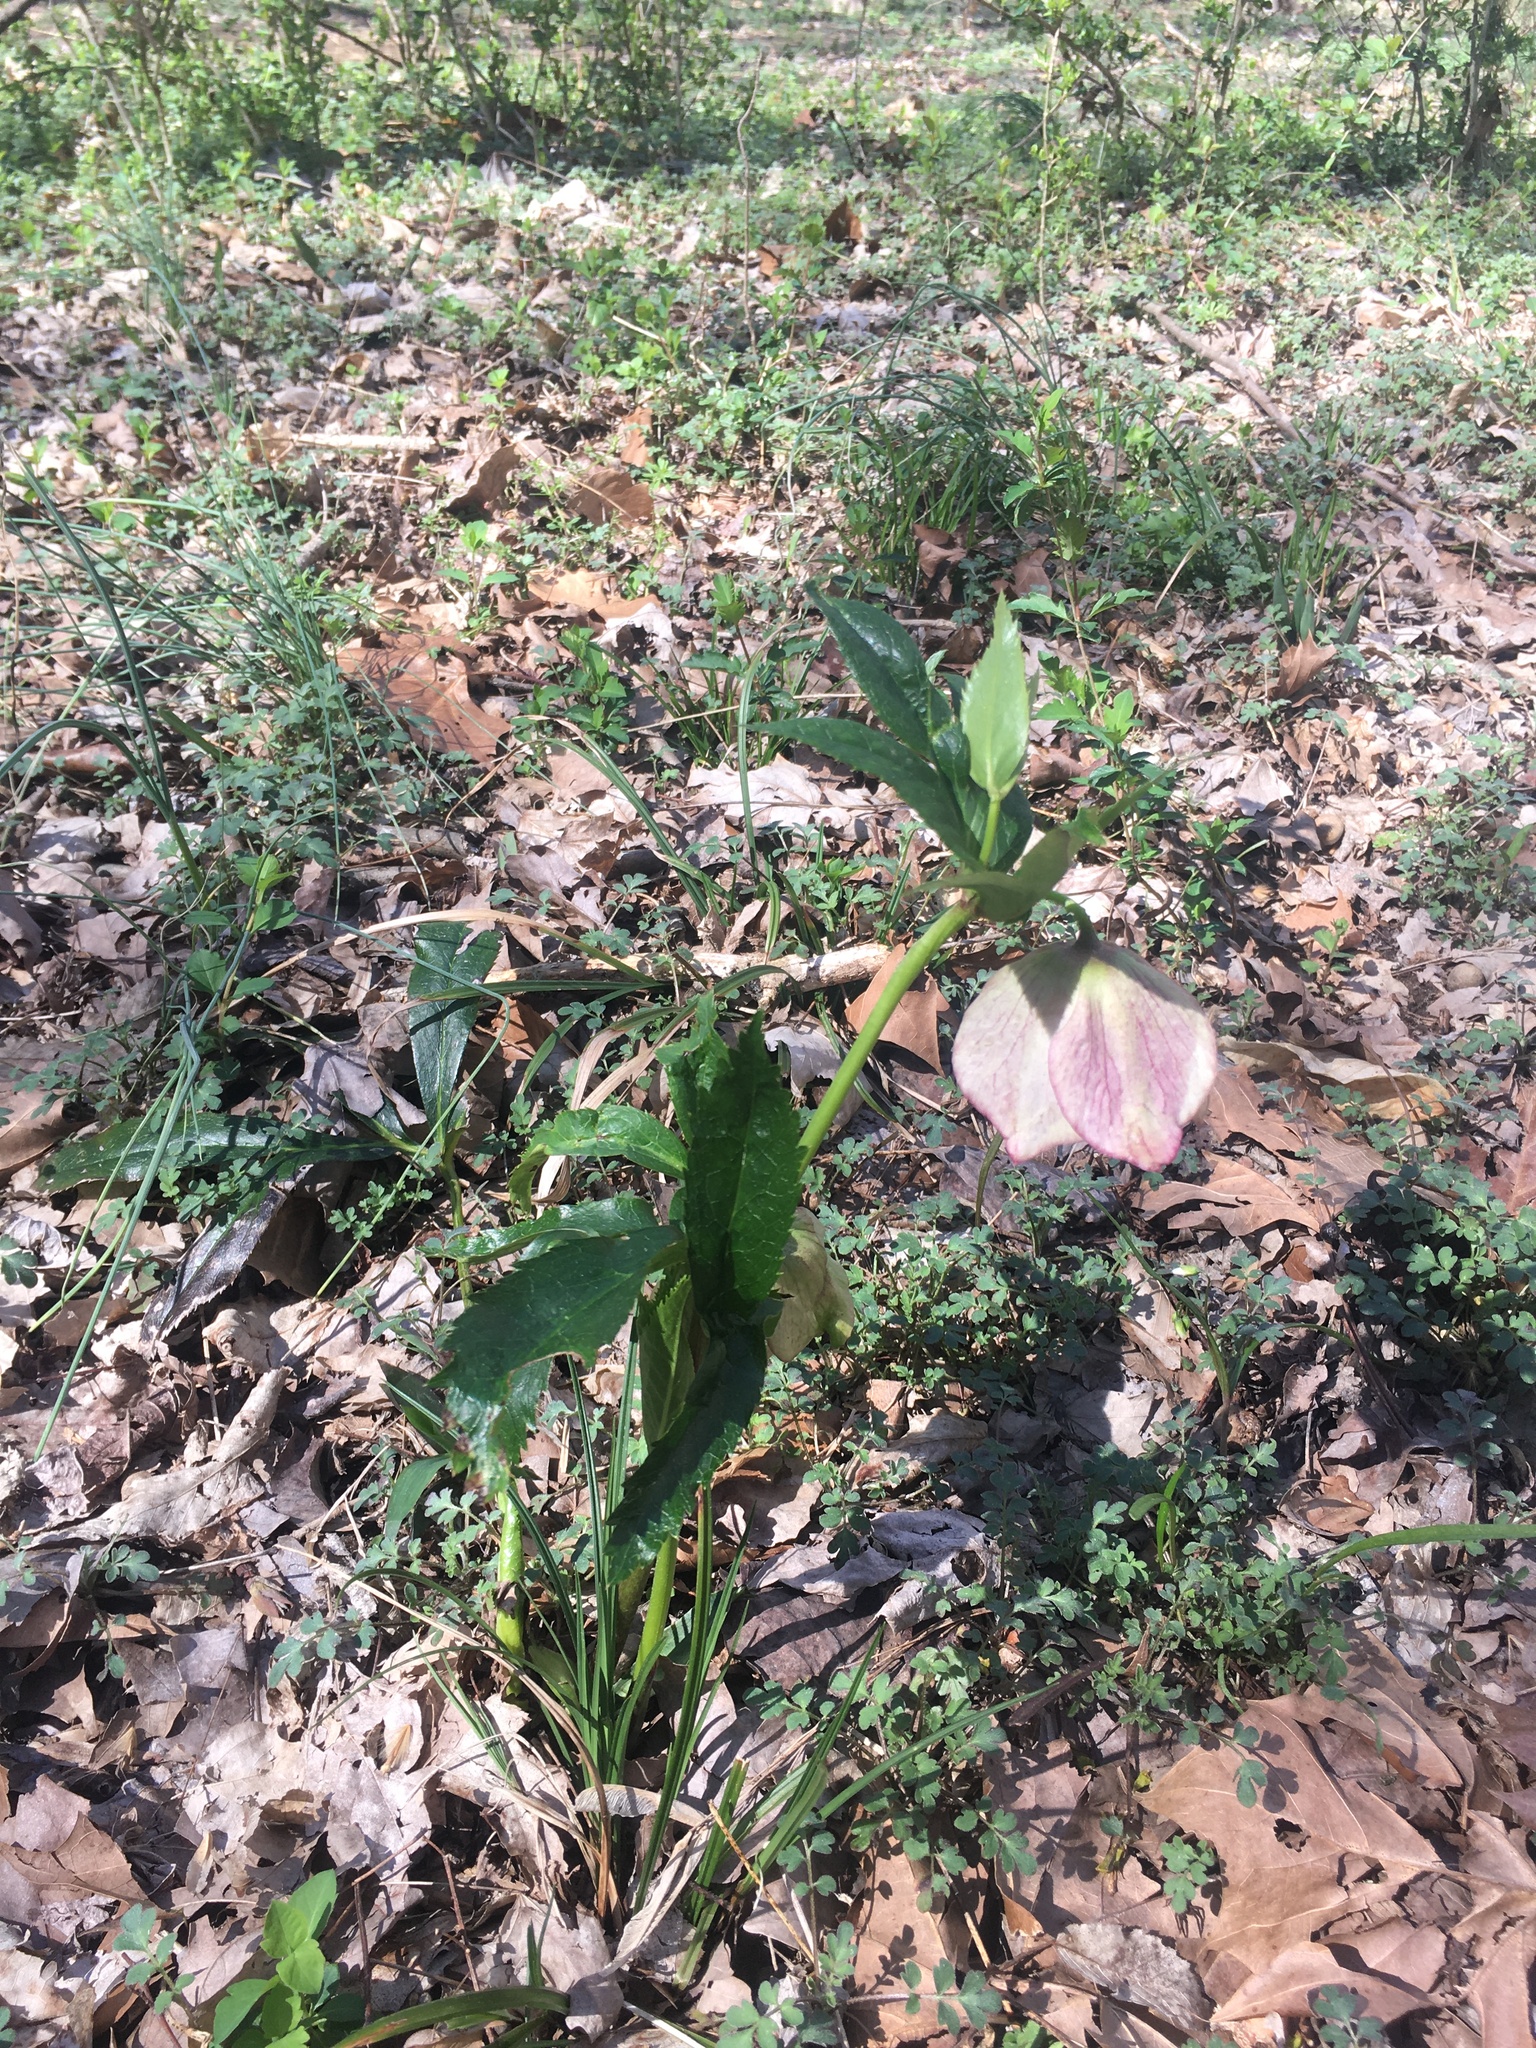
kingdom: Plantae
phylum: Tracheophyta
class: Magnoliopsida
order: Ranunculales
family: Ranunculaceae
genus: Helleborus
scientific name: Helleborus orientalis
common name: Lenten-rose
